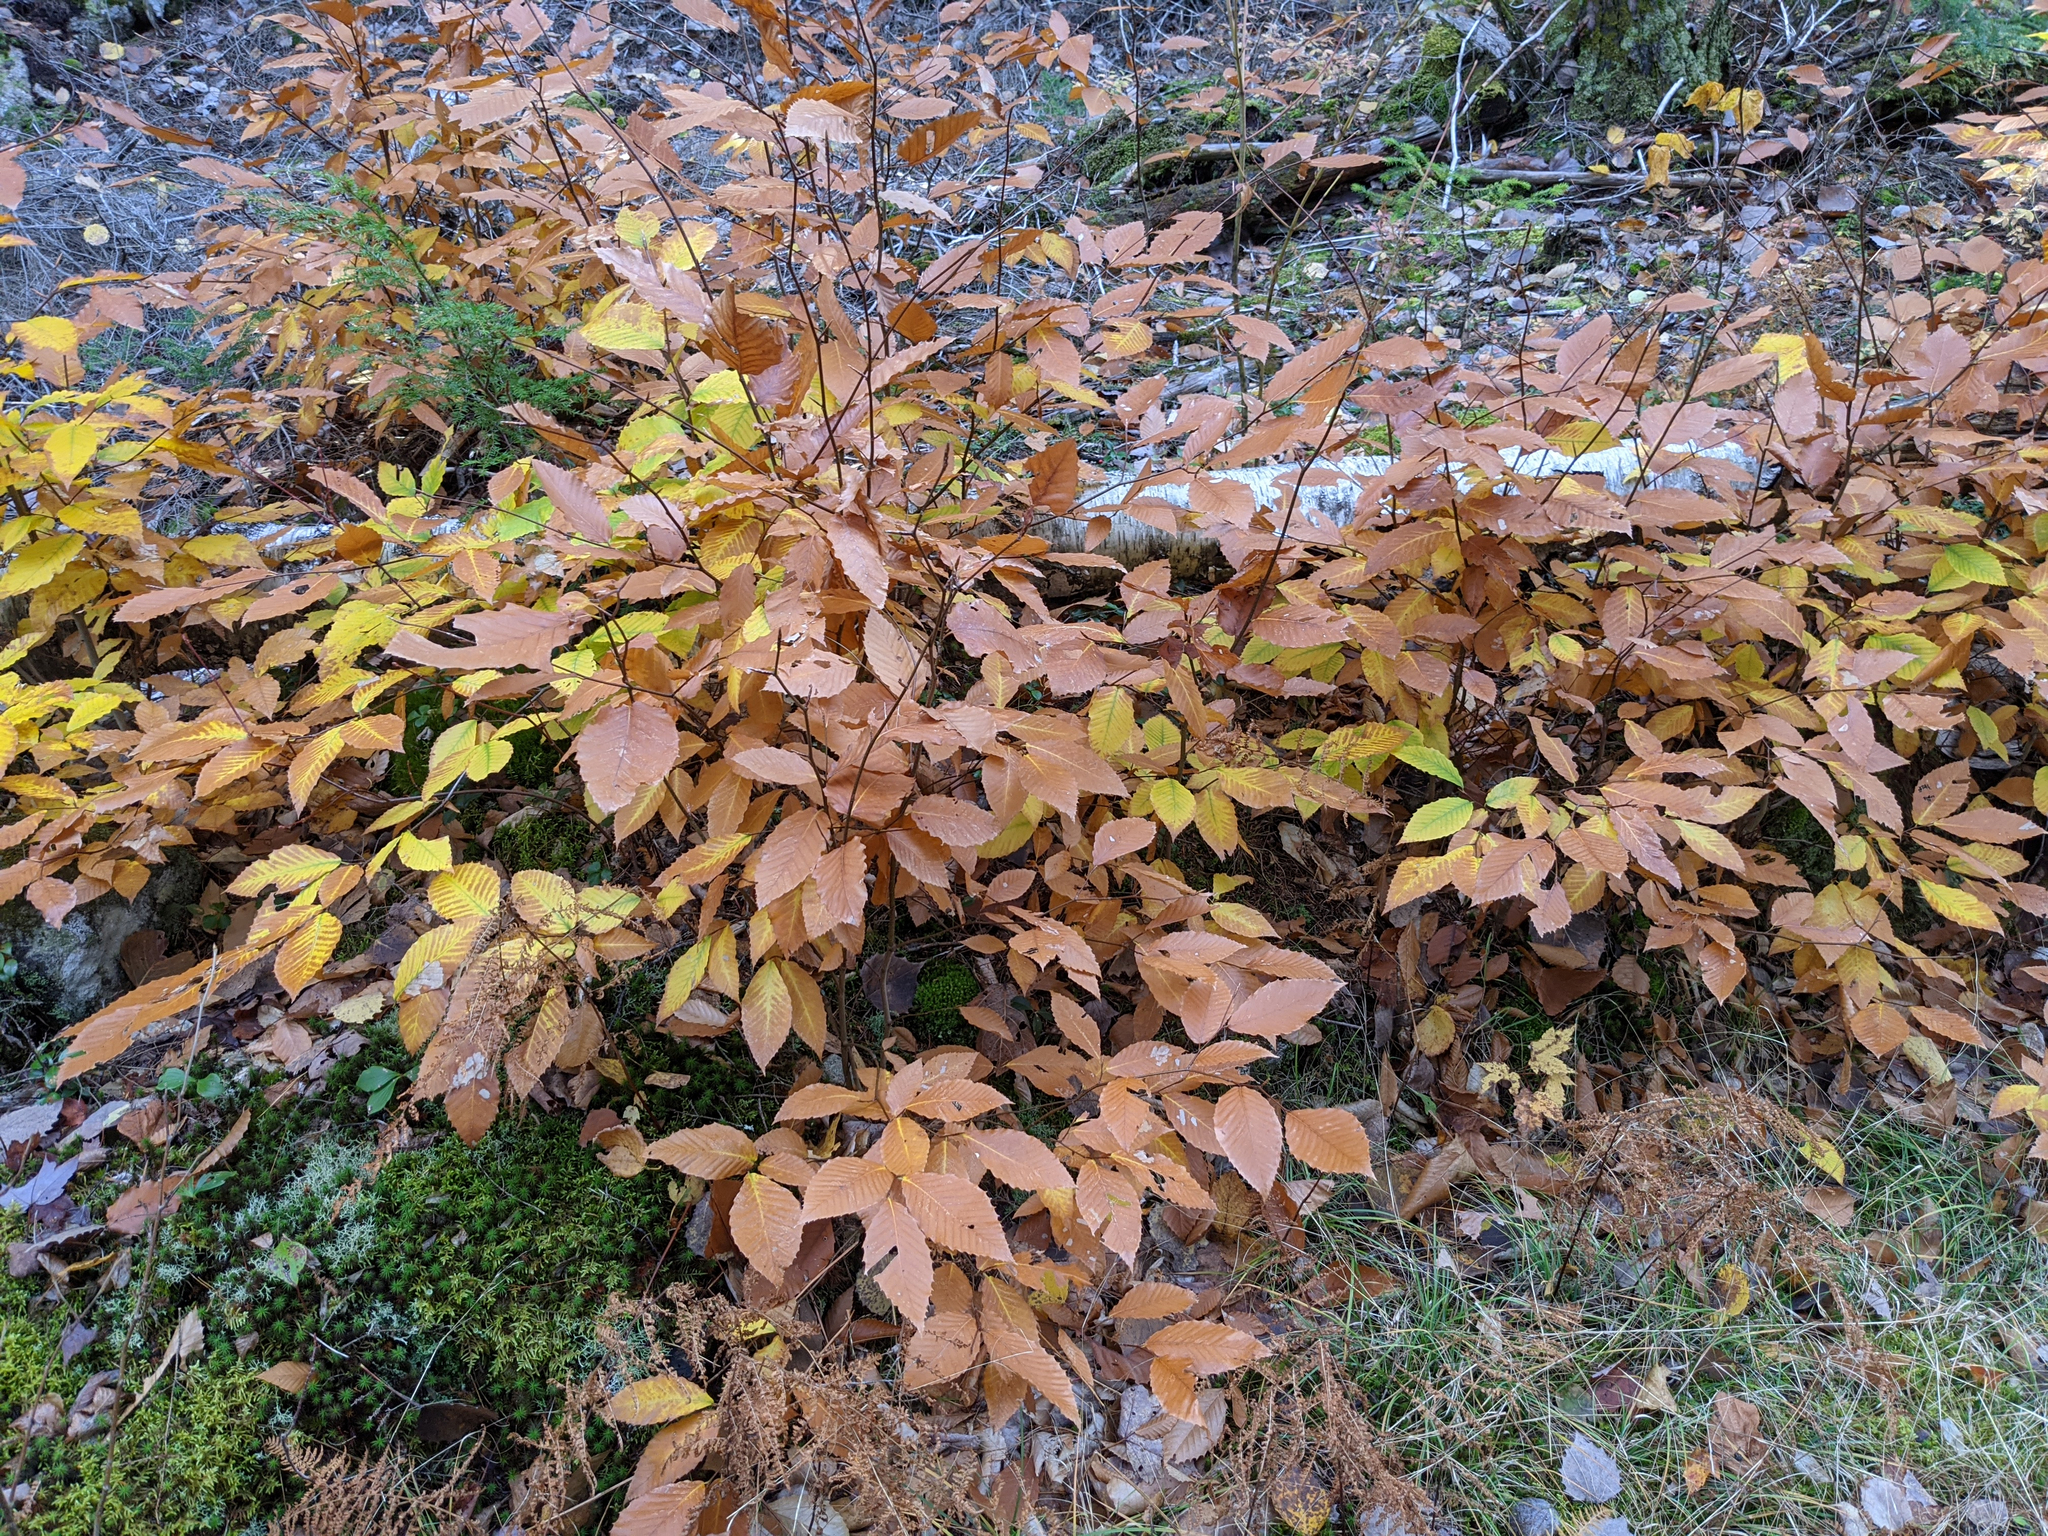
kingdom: Plantae
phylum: Tracheophyta
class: Magnoliopsida
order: Fagales
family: Fagaceae
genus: Fagus
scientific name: Fagus grandifolia
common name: American beech
